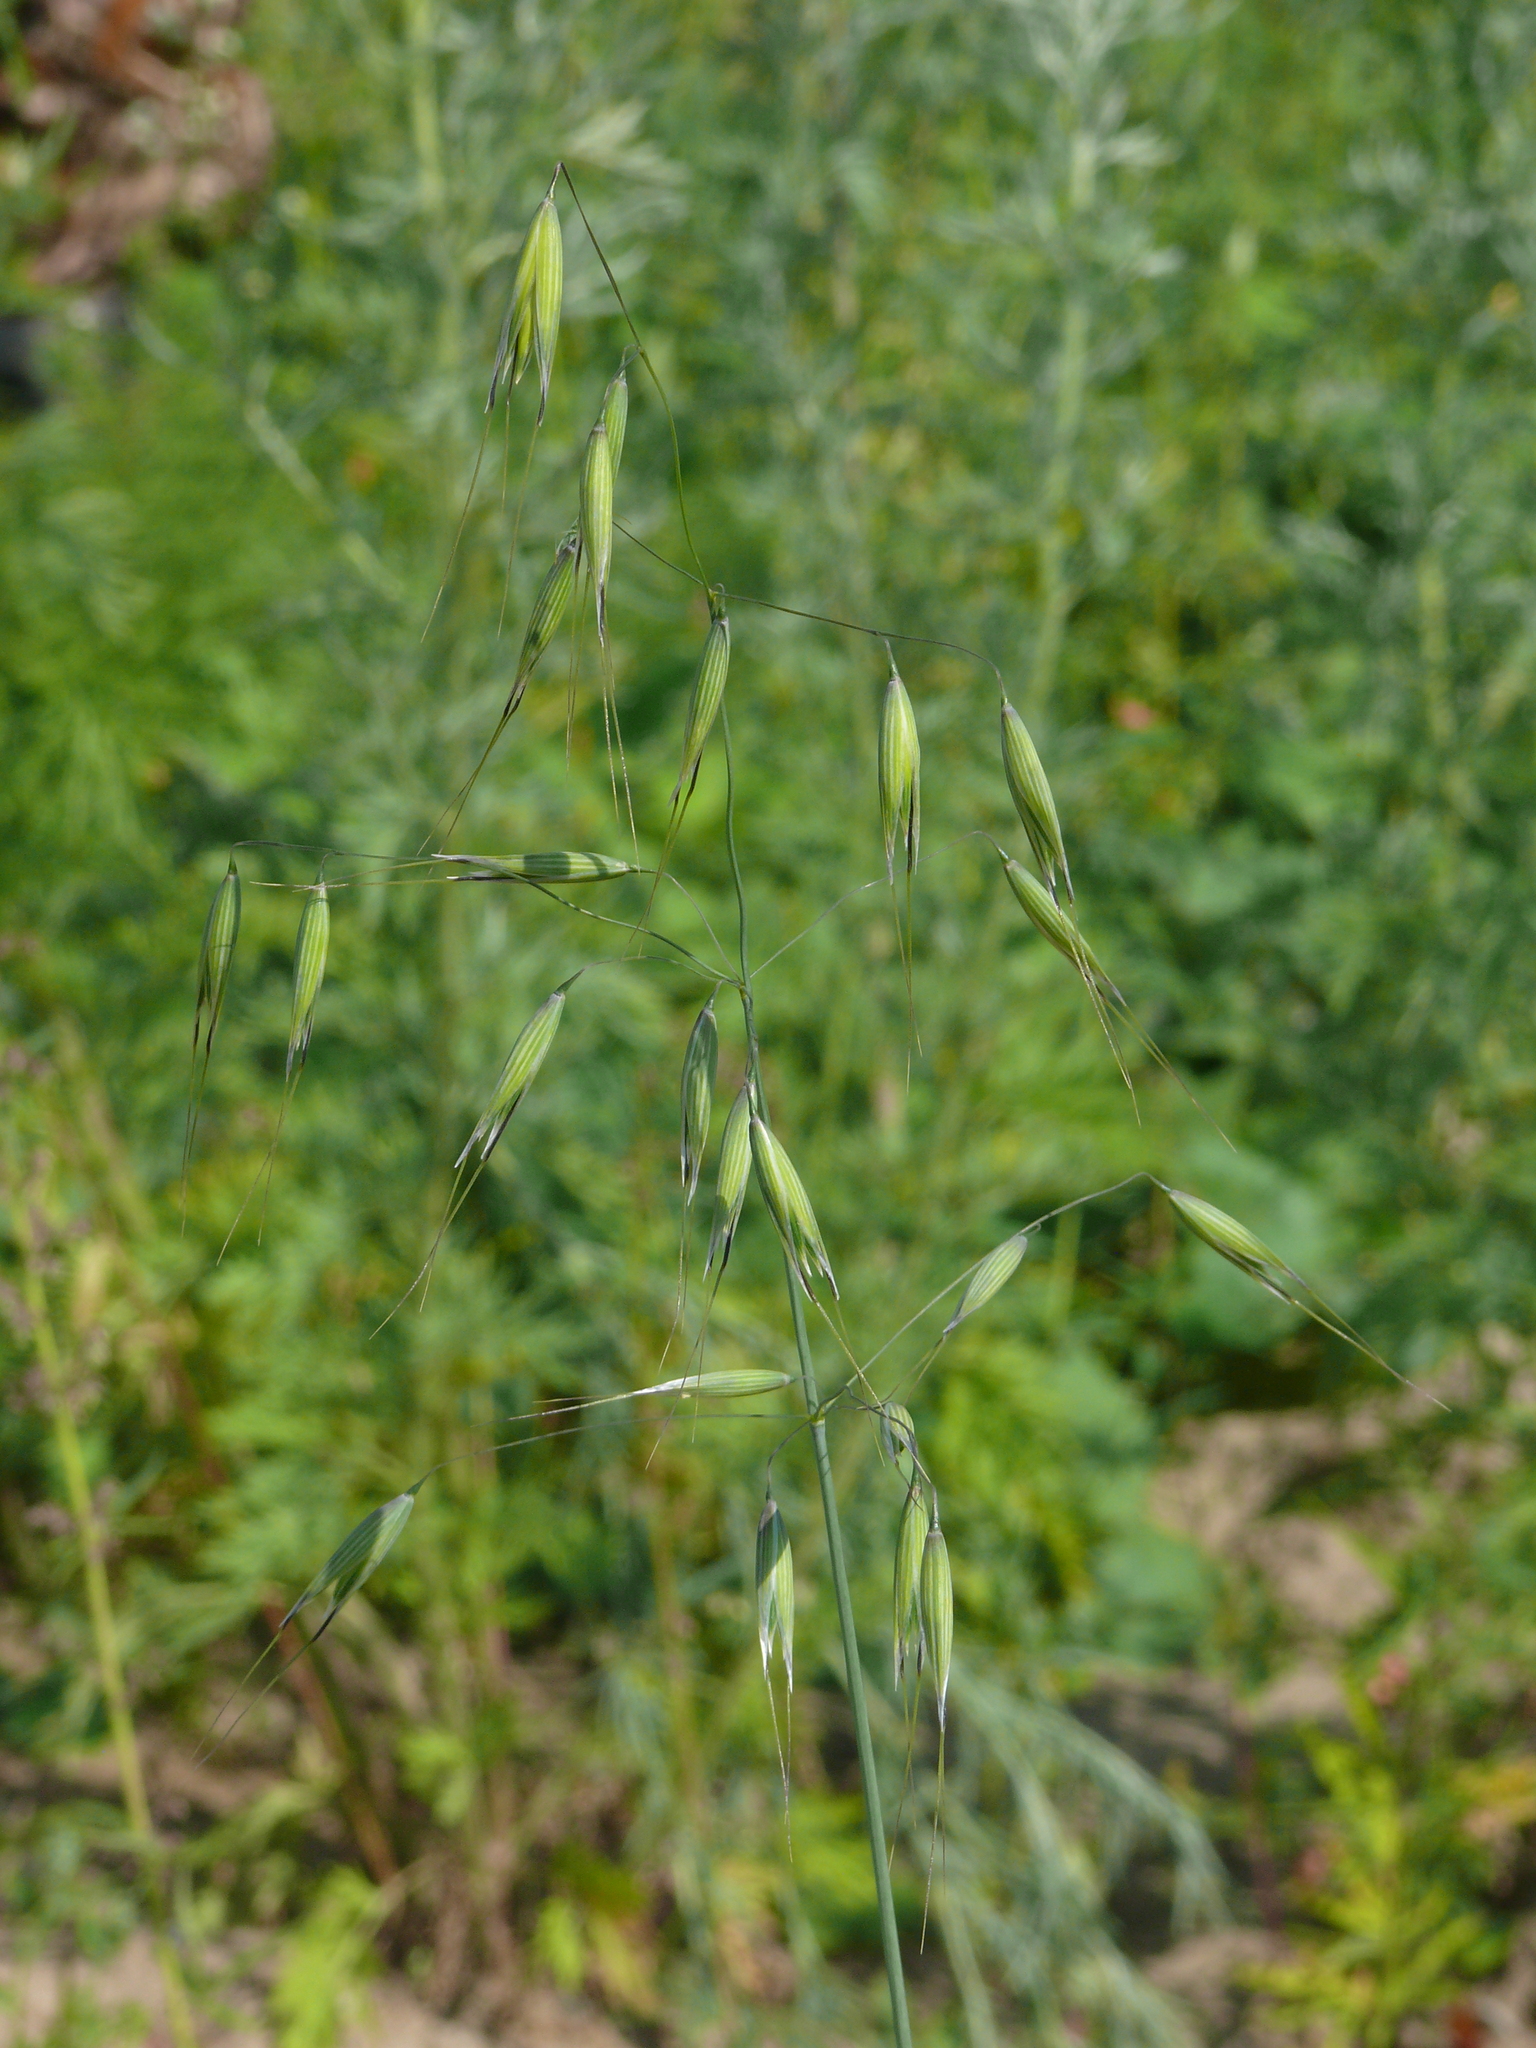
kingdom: Plantae
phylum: Tracheophyta
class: Liliopsida
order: Poales
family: Poaceae
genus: Avena
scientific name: Avena fatua
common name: Wild oat
